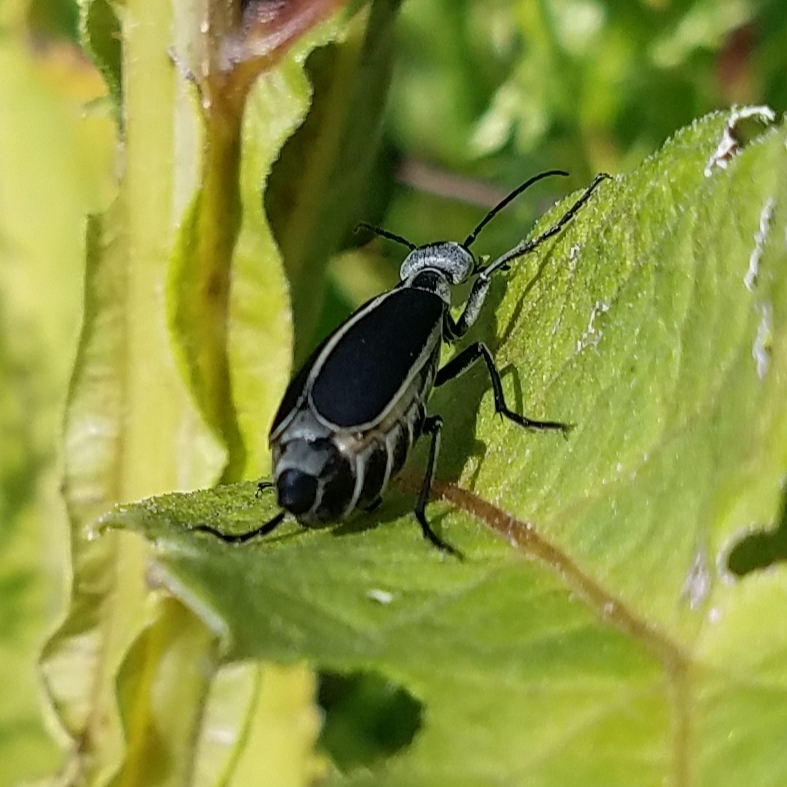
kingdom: Animalia
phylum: Arthropoda
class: Insecta
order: Coleoptera
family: Meloidae
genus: Epicauta
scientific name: Epicauta funebris
